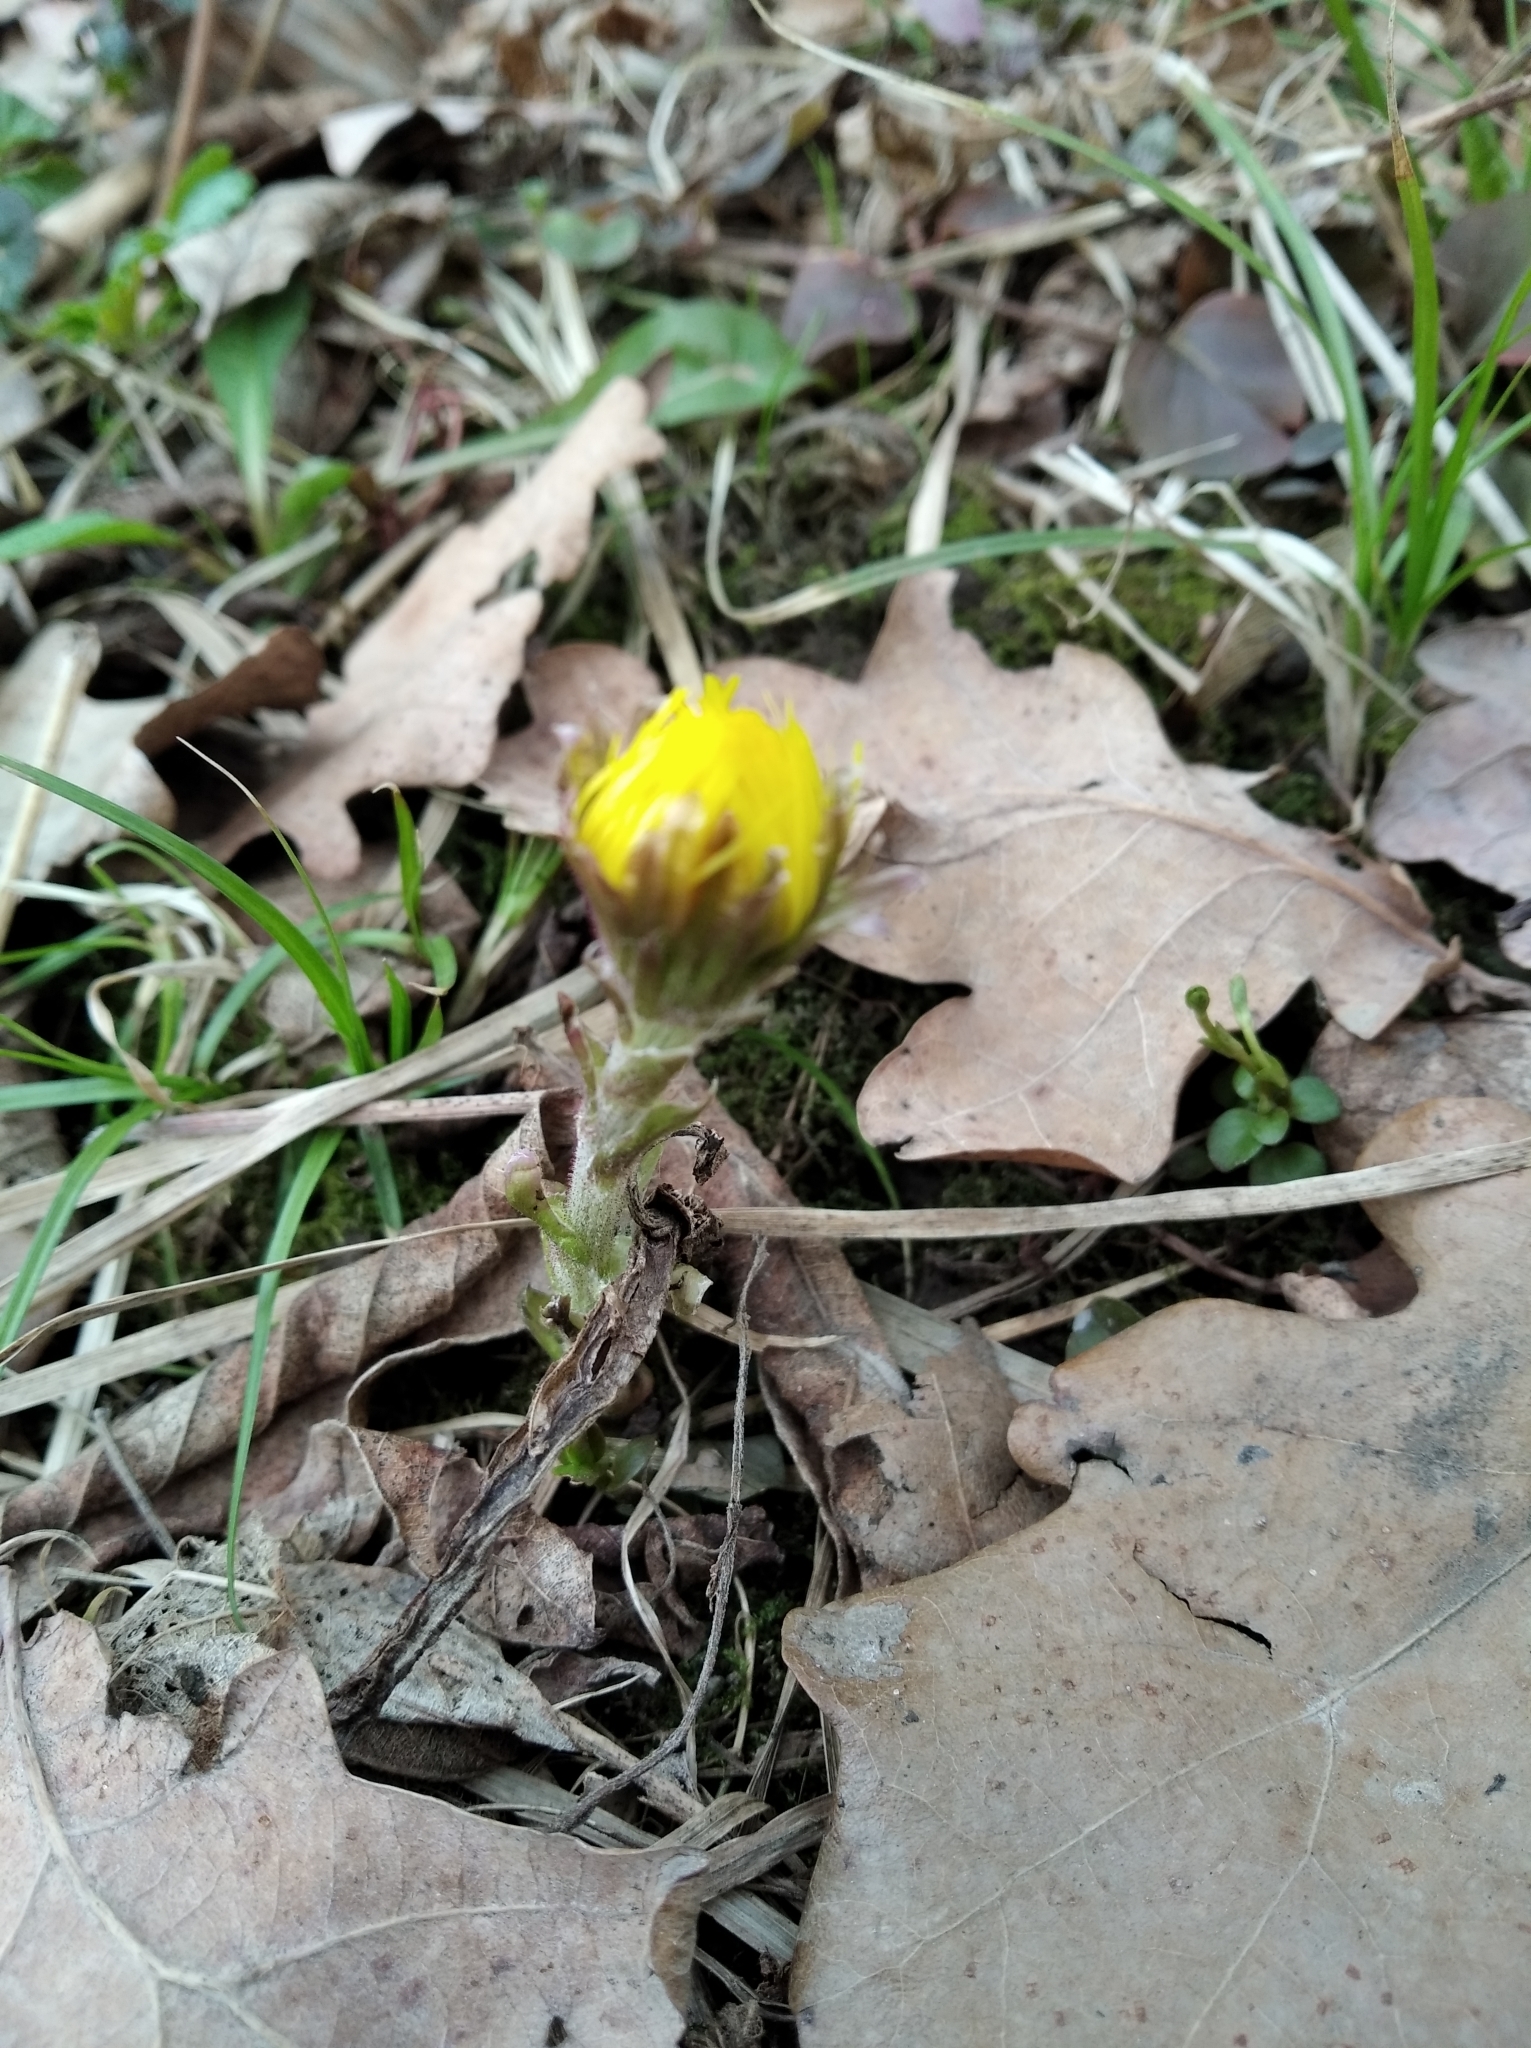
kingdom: Plantae
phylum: Tracheophyta
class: Magnoliopsida
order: Asterales
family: Asteraceae
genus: Tussilago
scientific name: Tussilago farfara
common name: Coltsfoot
